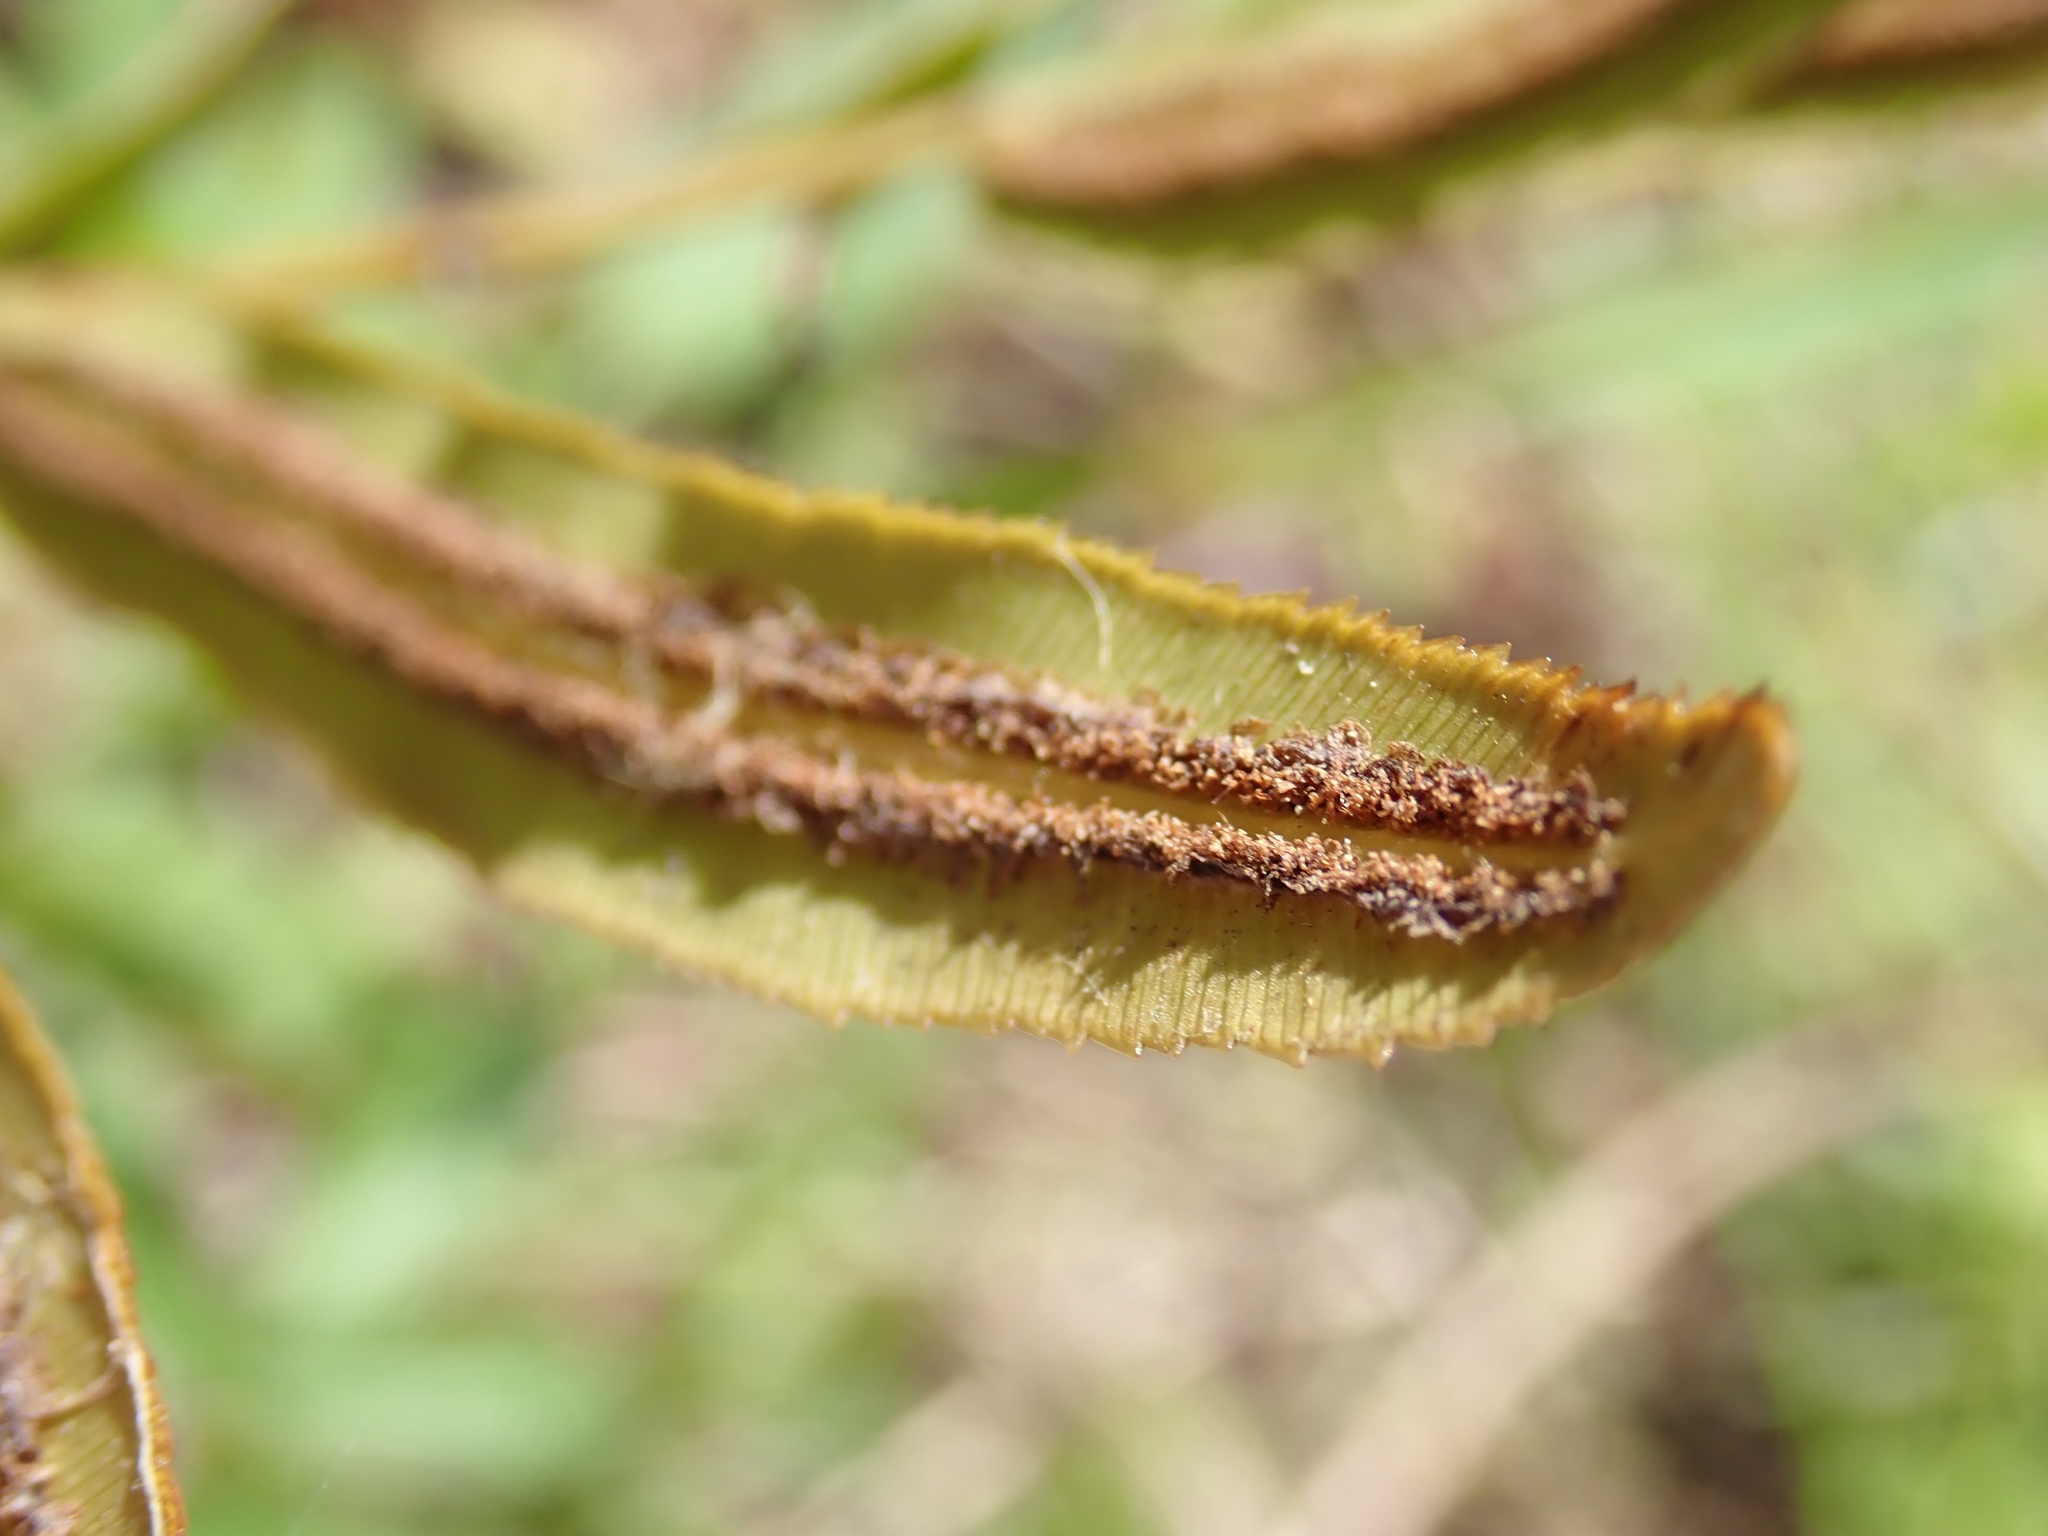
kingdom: Plantae
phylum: Tracheophyta
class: Polypodiopsida
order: Polypodiales
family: Blechnaceae
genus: Telmatoblechnum
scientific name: Telmatoblechnum serrulatum
